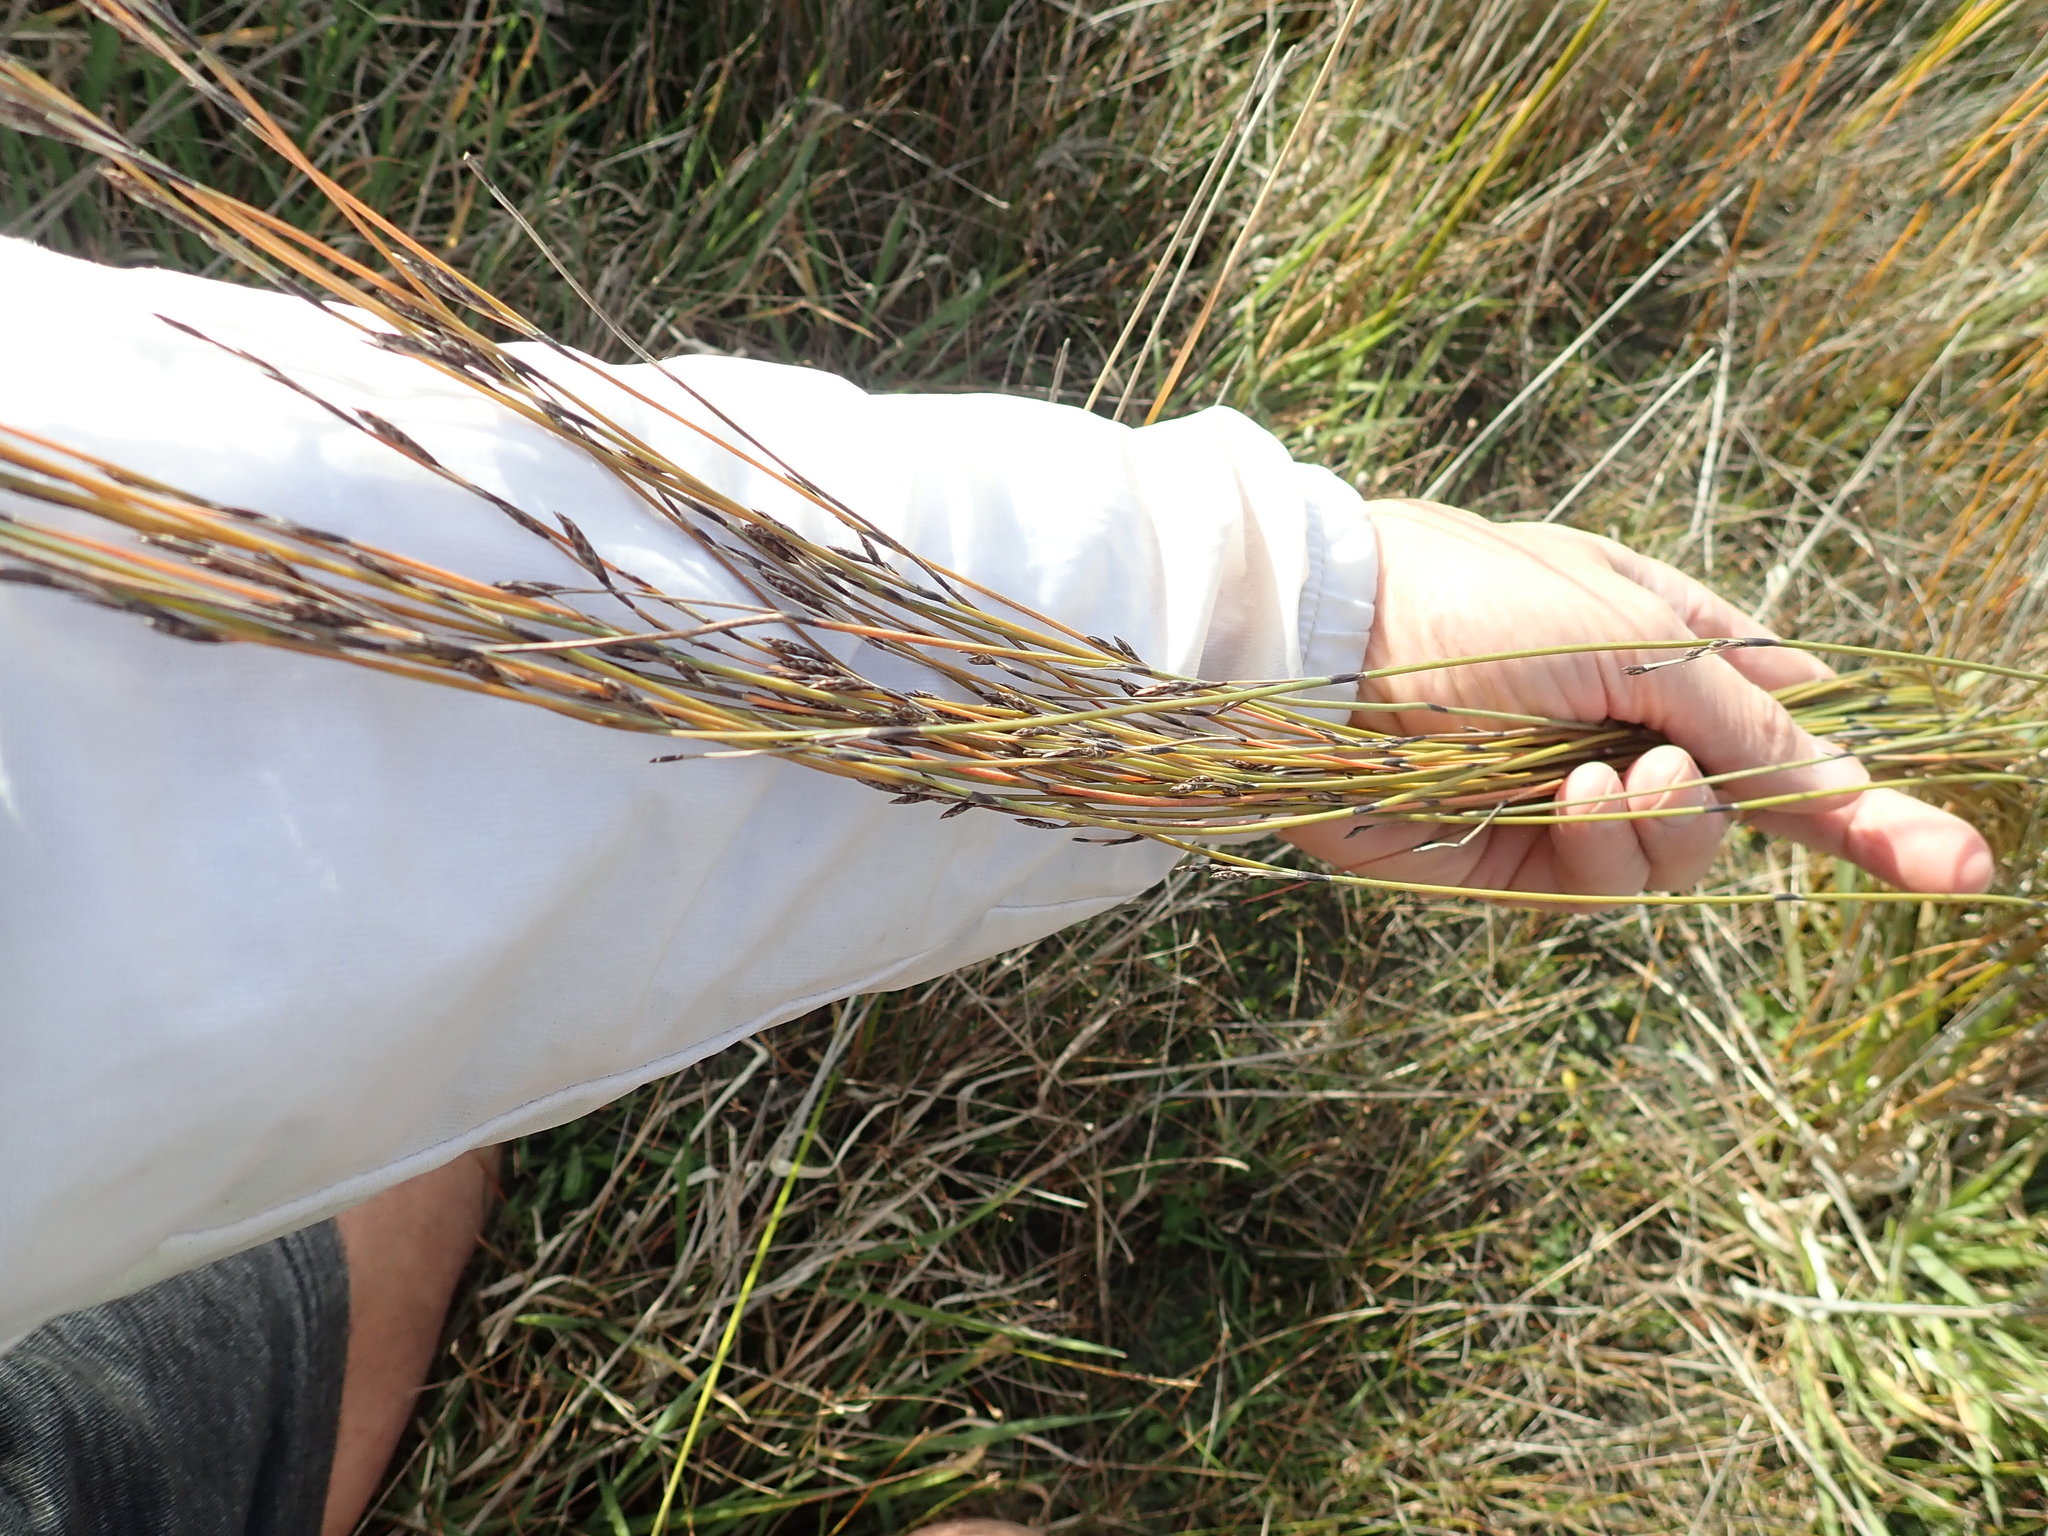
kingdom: Plantae
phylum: Tracheophyta
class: Liliopsida
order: Poales
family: Restionaceae
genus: Apodasmia
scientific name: Apodasmia similis
